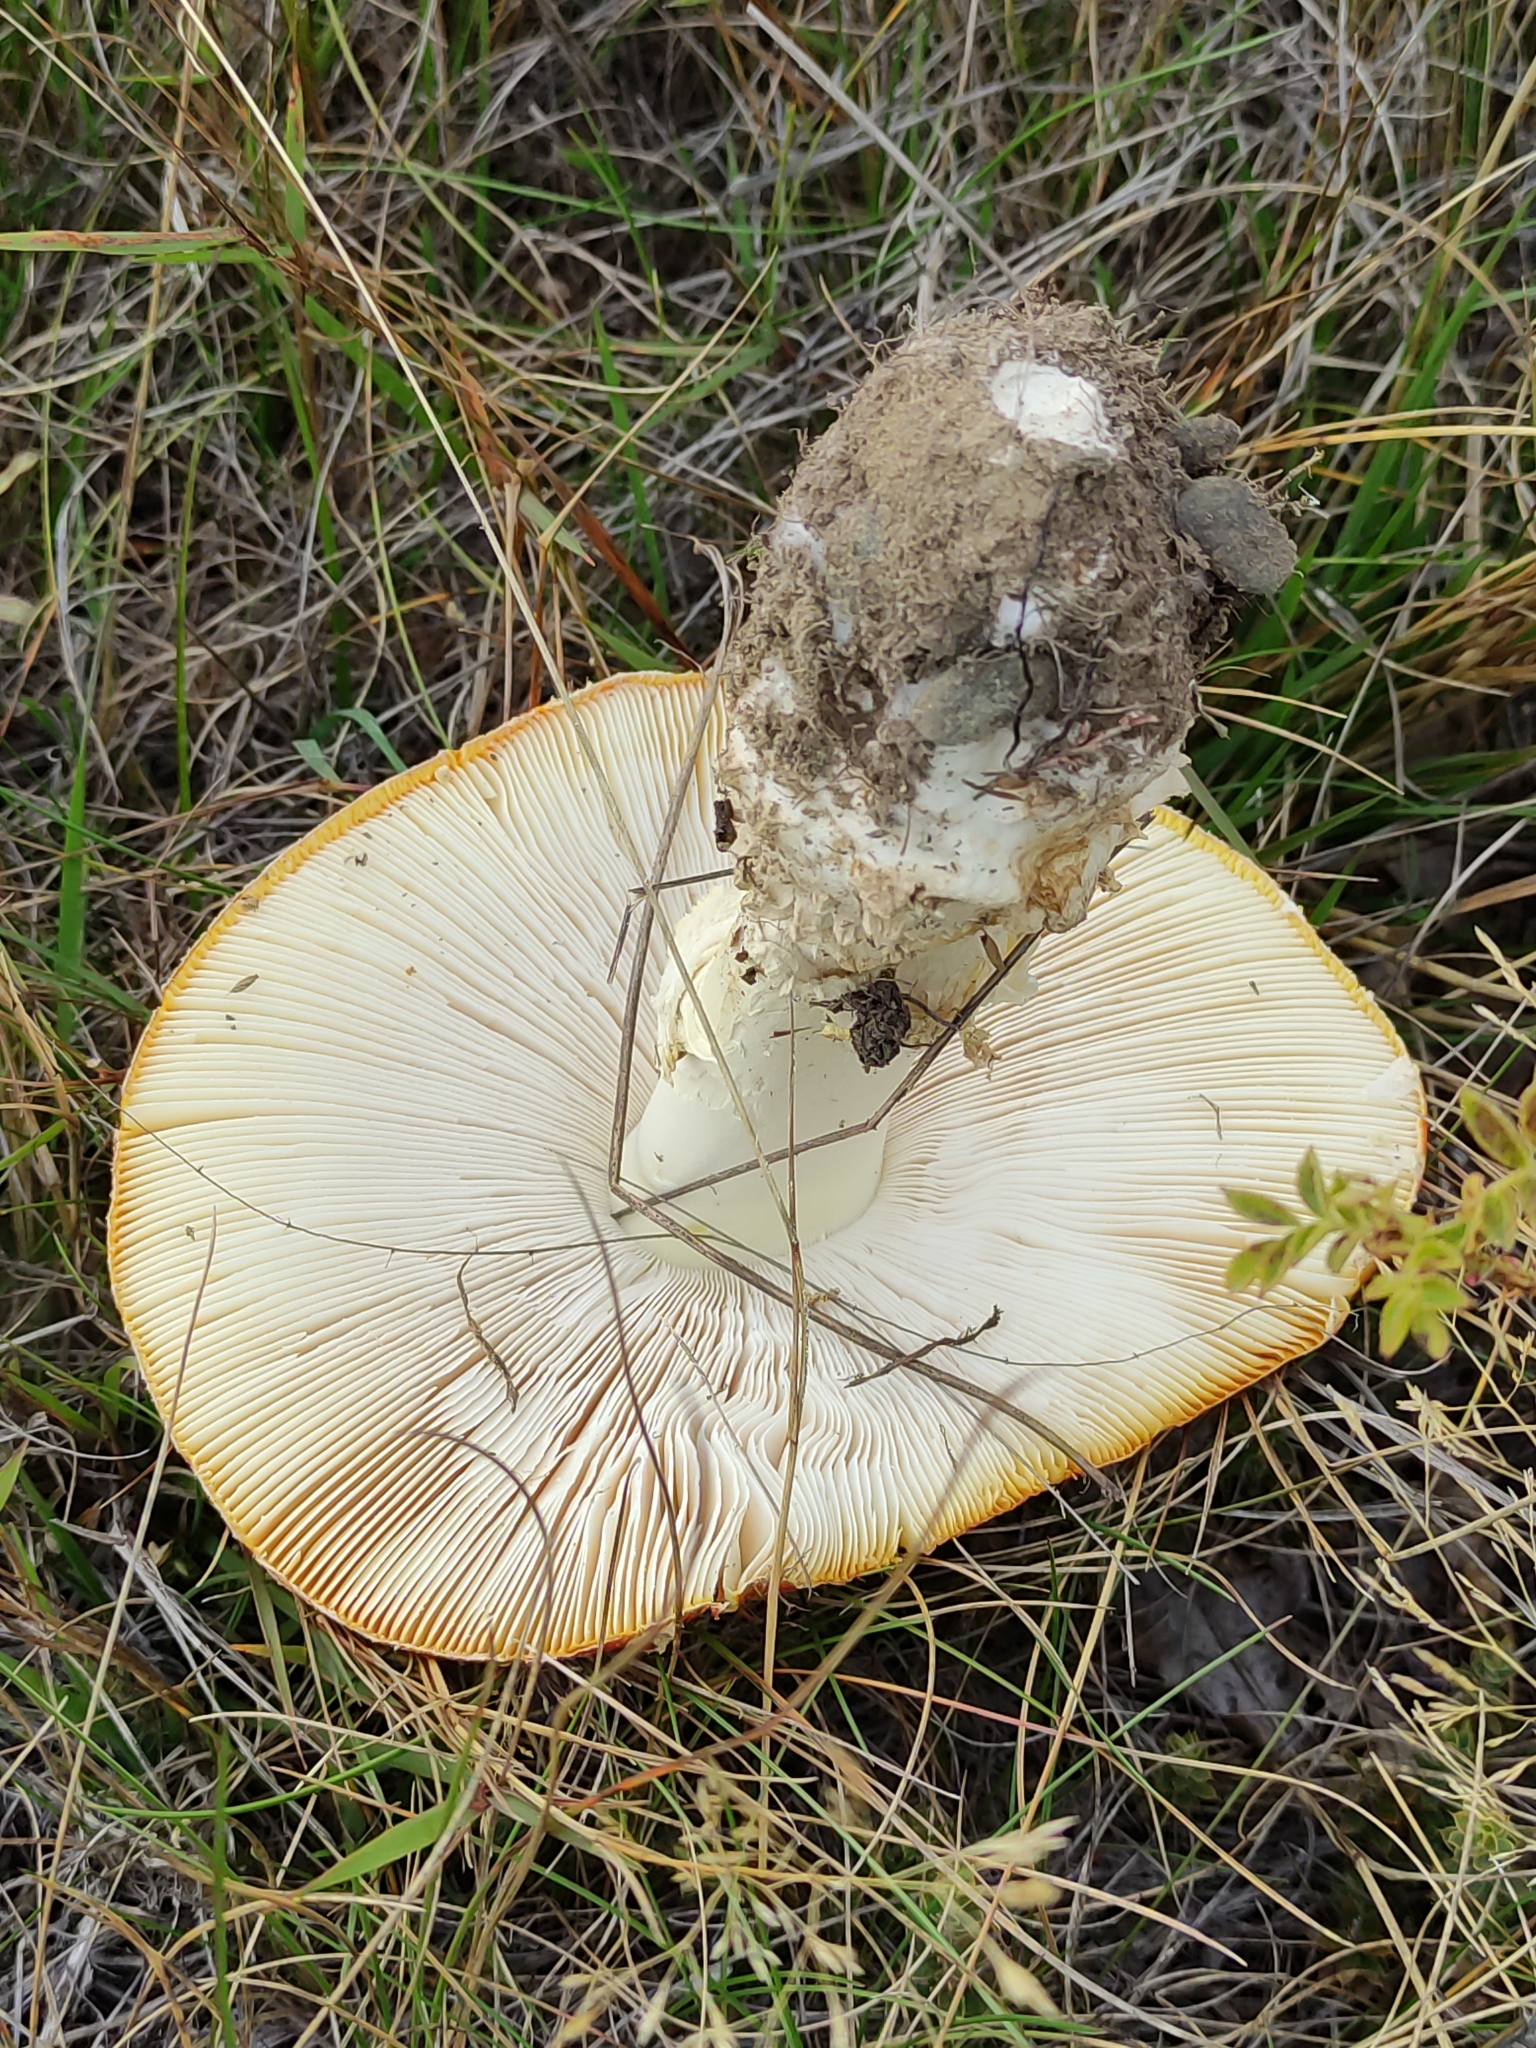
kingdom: Fungi
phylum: Basidiomycota
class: Agaricomycetes
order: Agaricales
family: Amanitaceae
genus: Amanita
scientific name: Amanita muscaria
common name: Fly agaric
